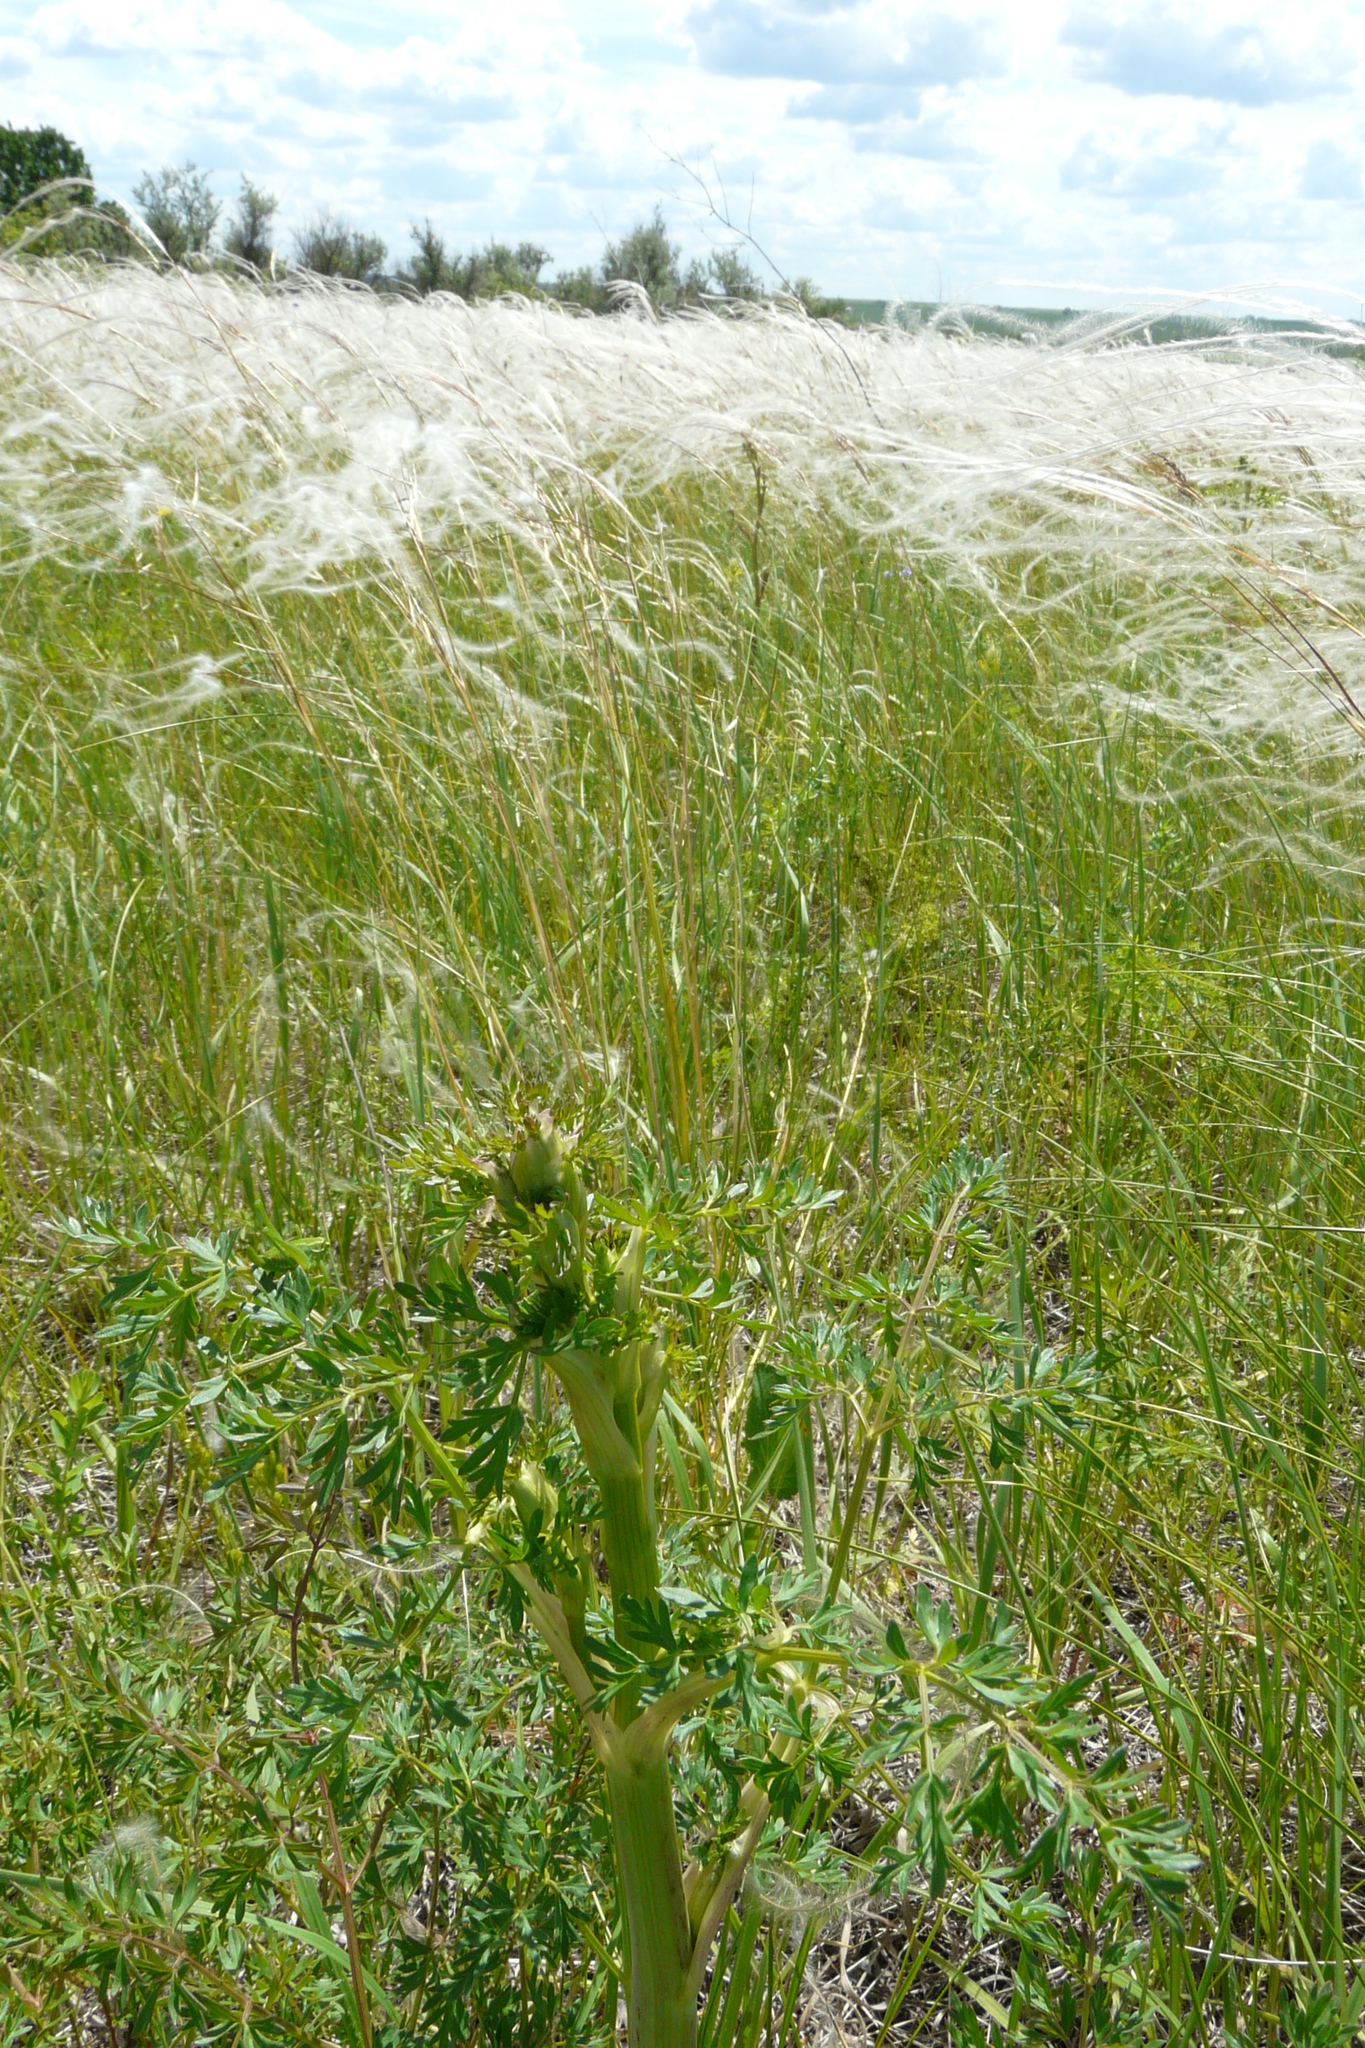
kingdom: Plantae
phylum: Tracheophyta
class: Magnoliopsida
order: Apiales
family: Apiaceae
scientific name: Apiaceae
